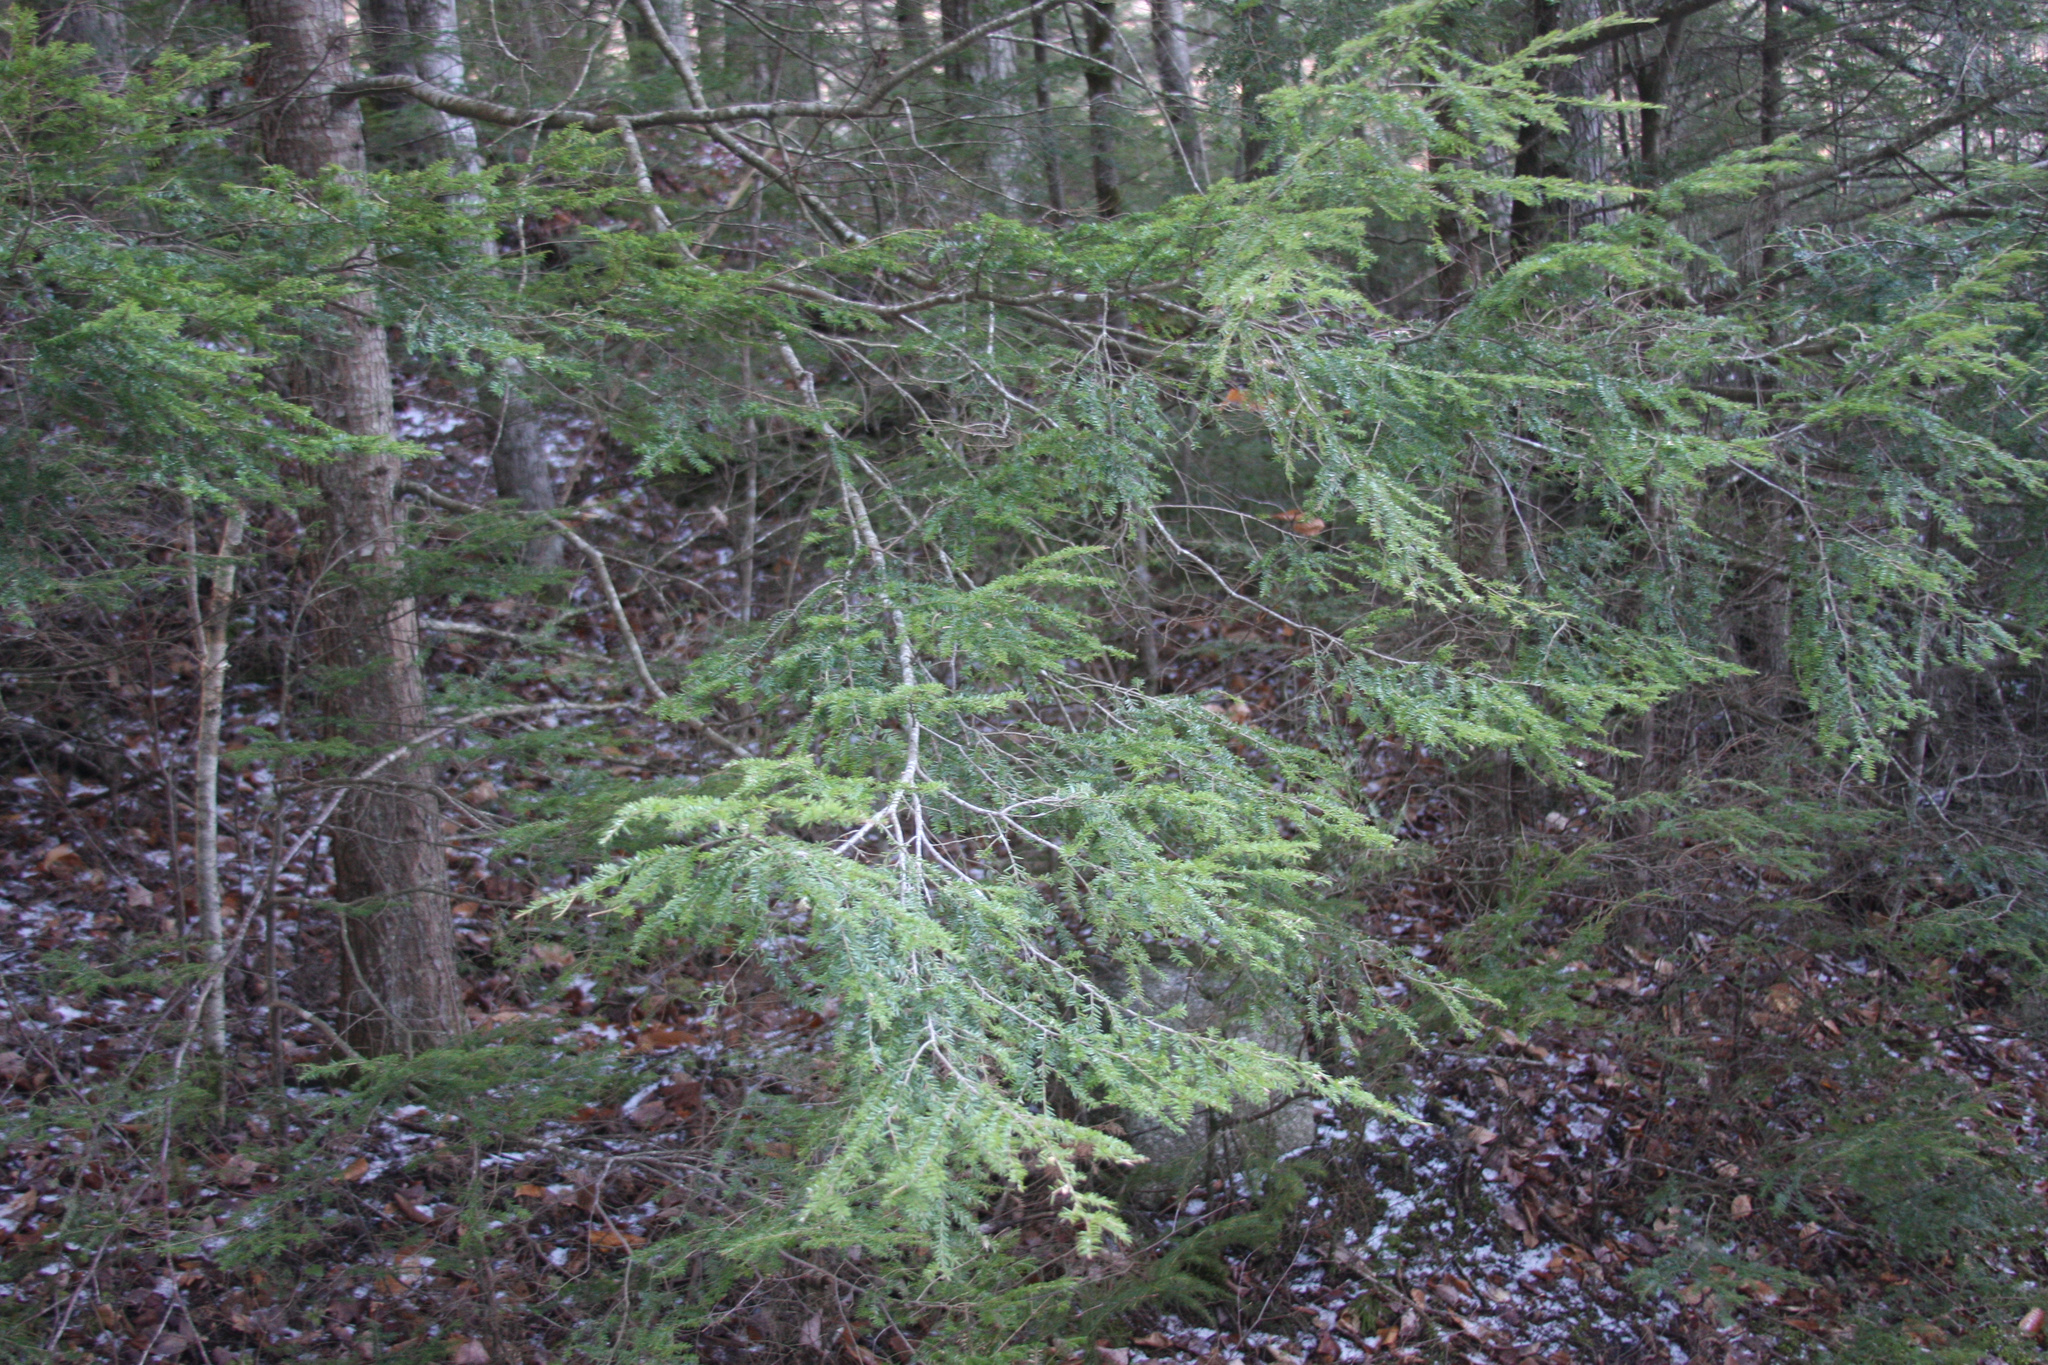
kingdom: Plantae
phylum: Tracheophyta
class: Pinopsida
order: Pinales
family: Pinaceae
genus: Tsuga
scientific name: Tsuga canadensis
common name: Eastern hemlock
